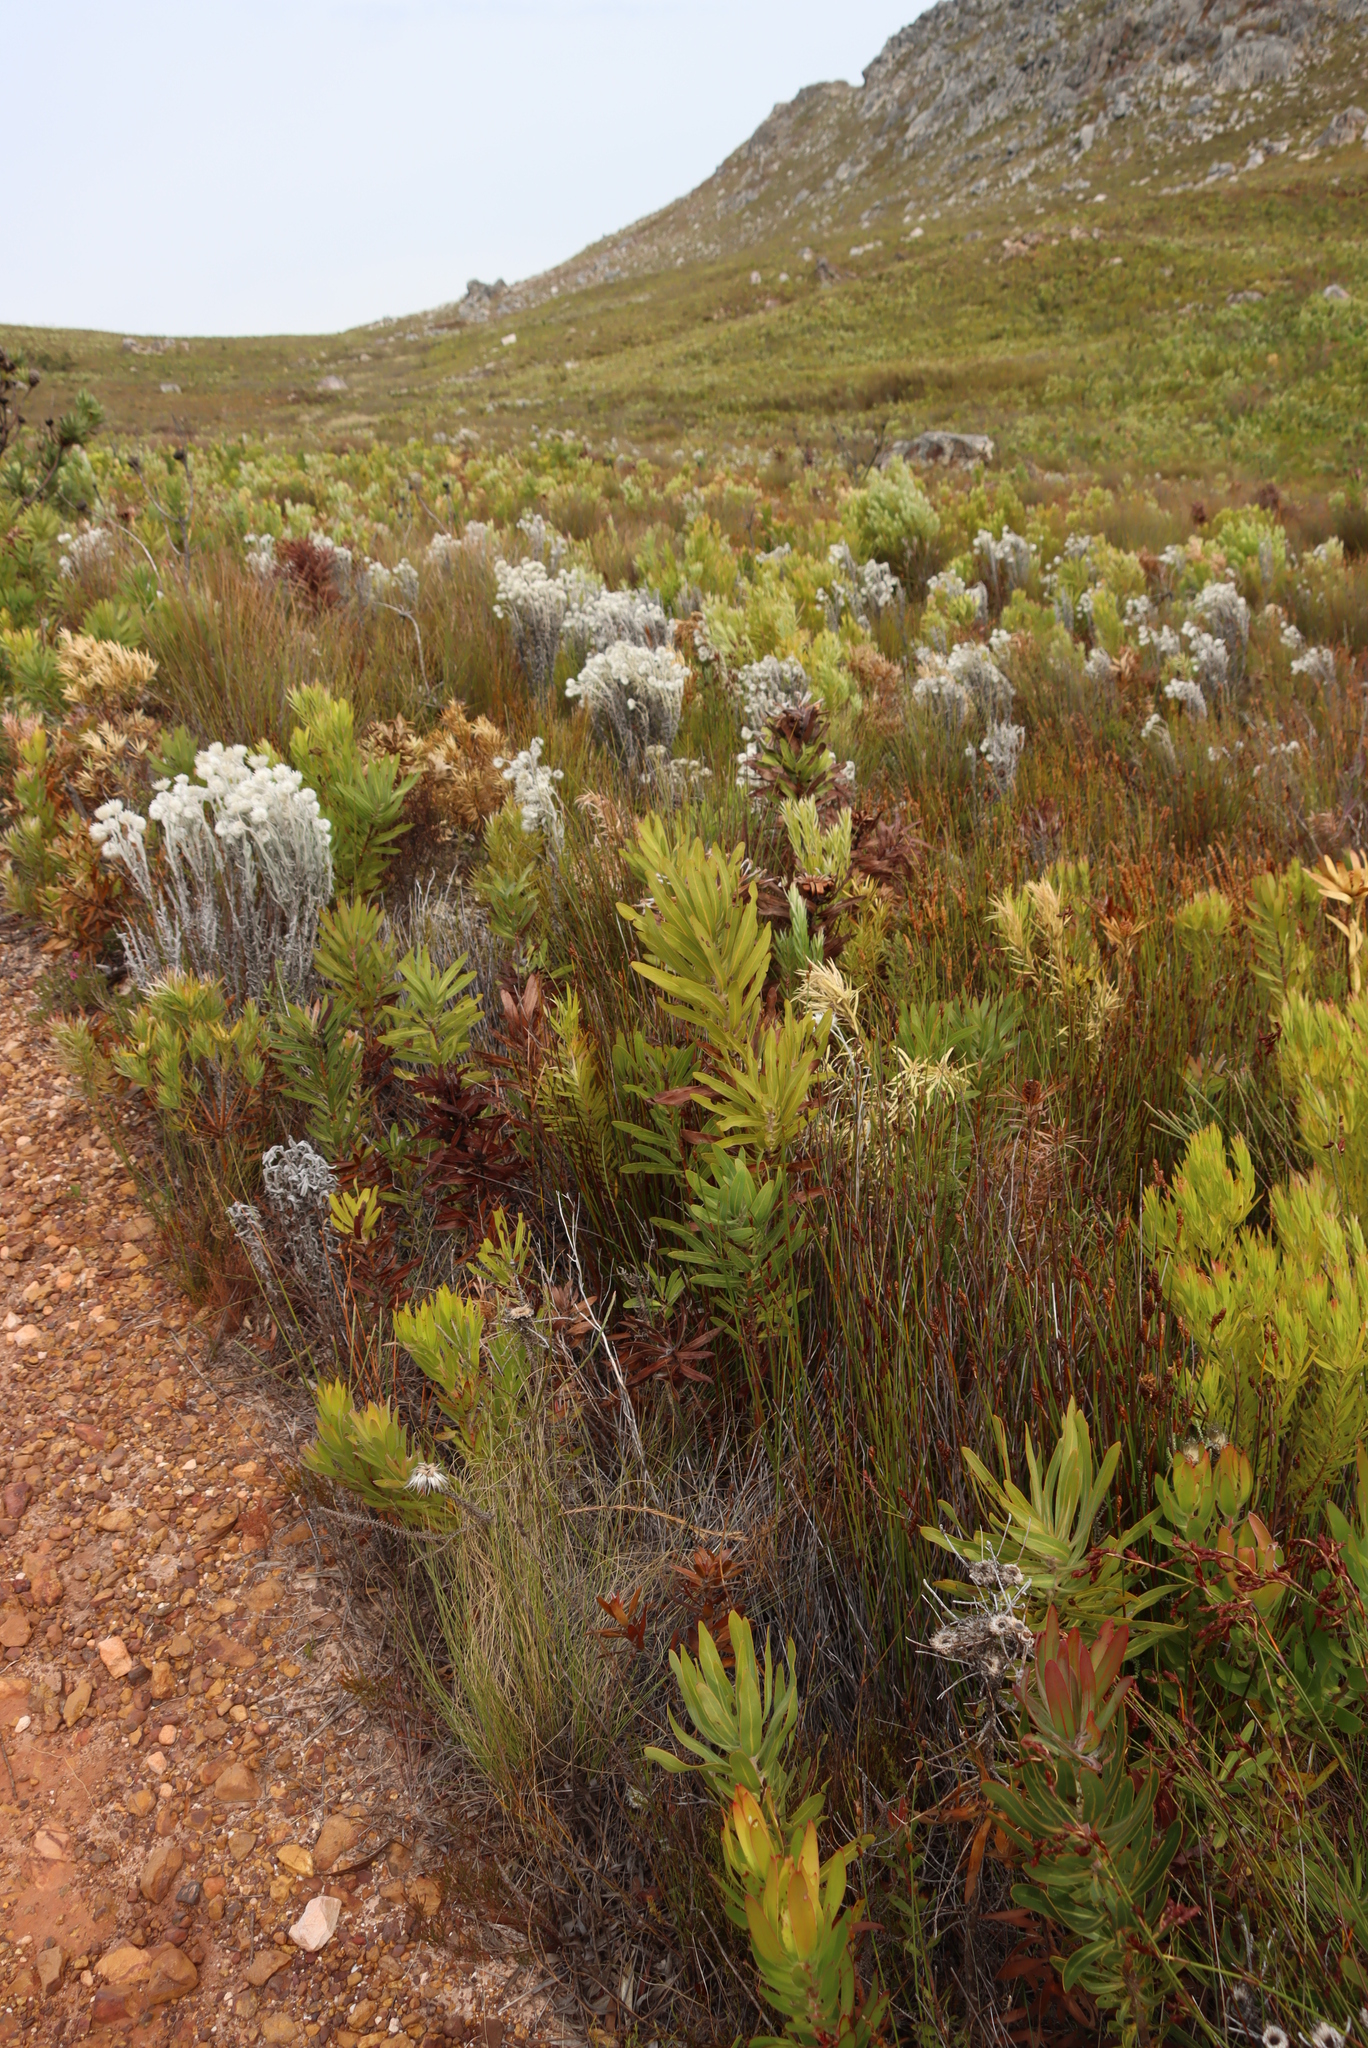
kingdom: Plantae
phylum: Tracheophyta
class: Magnoliopsida
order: Asterales
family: Asteraceae
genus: Syncarpha
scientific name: Syncarpha vestita
